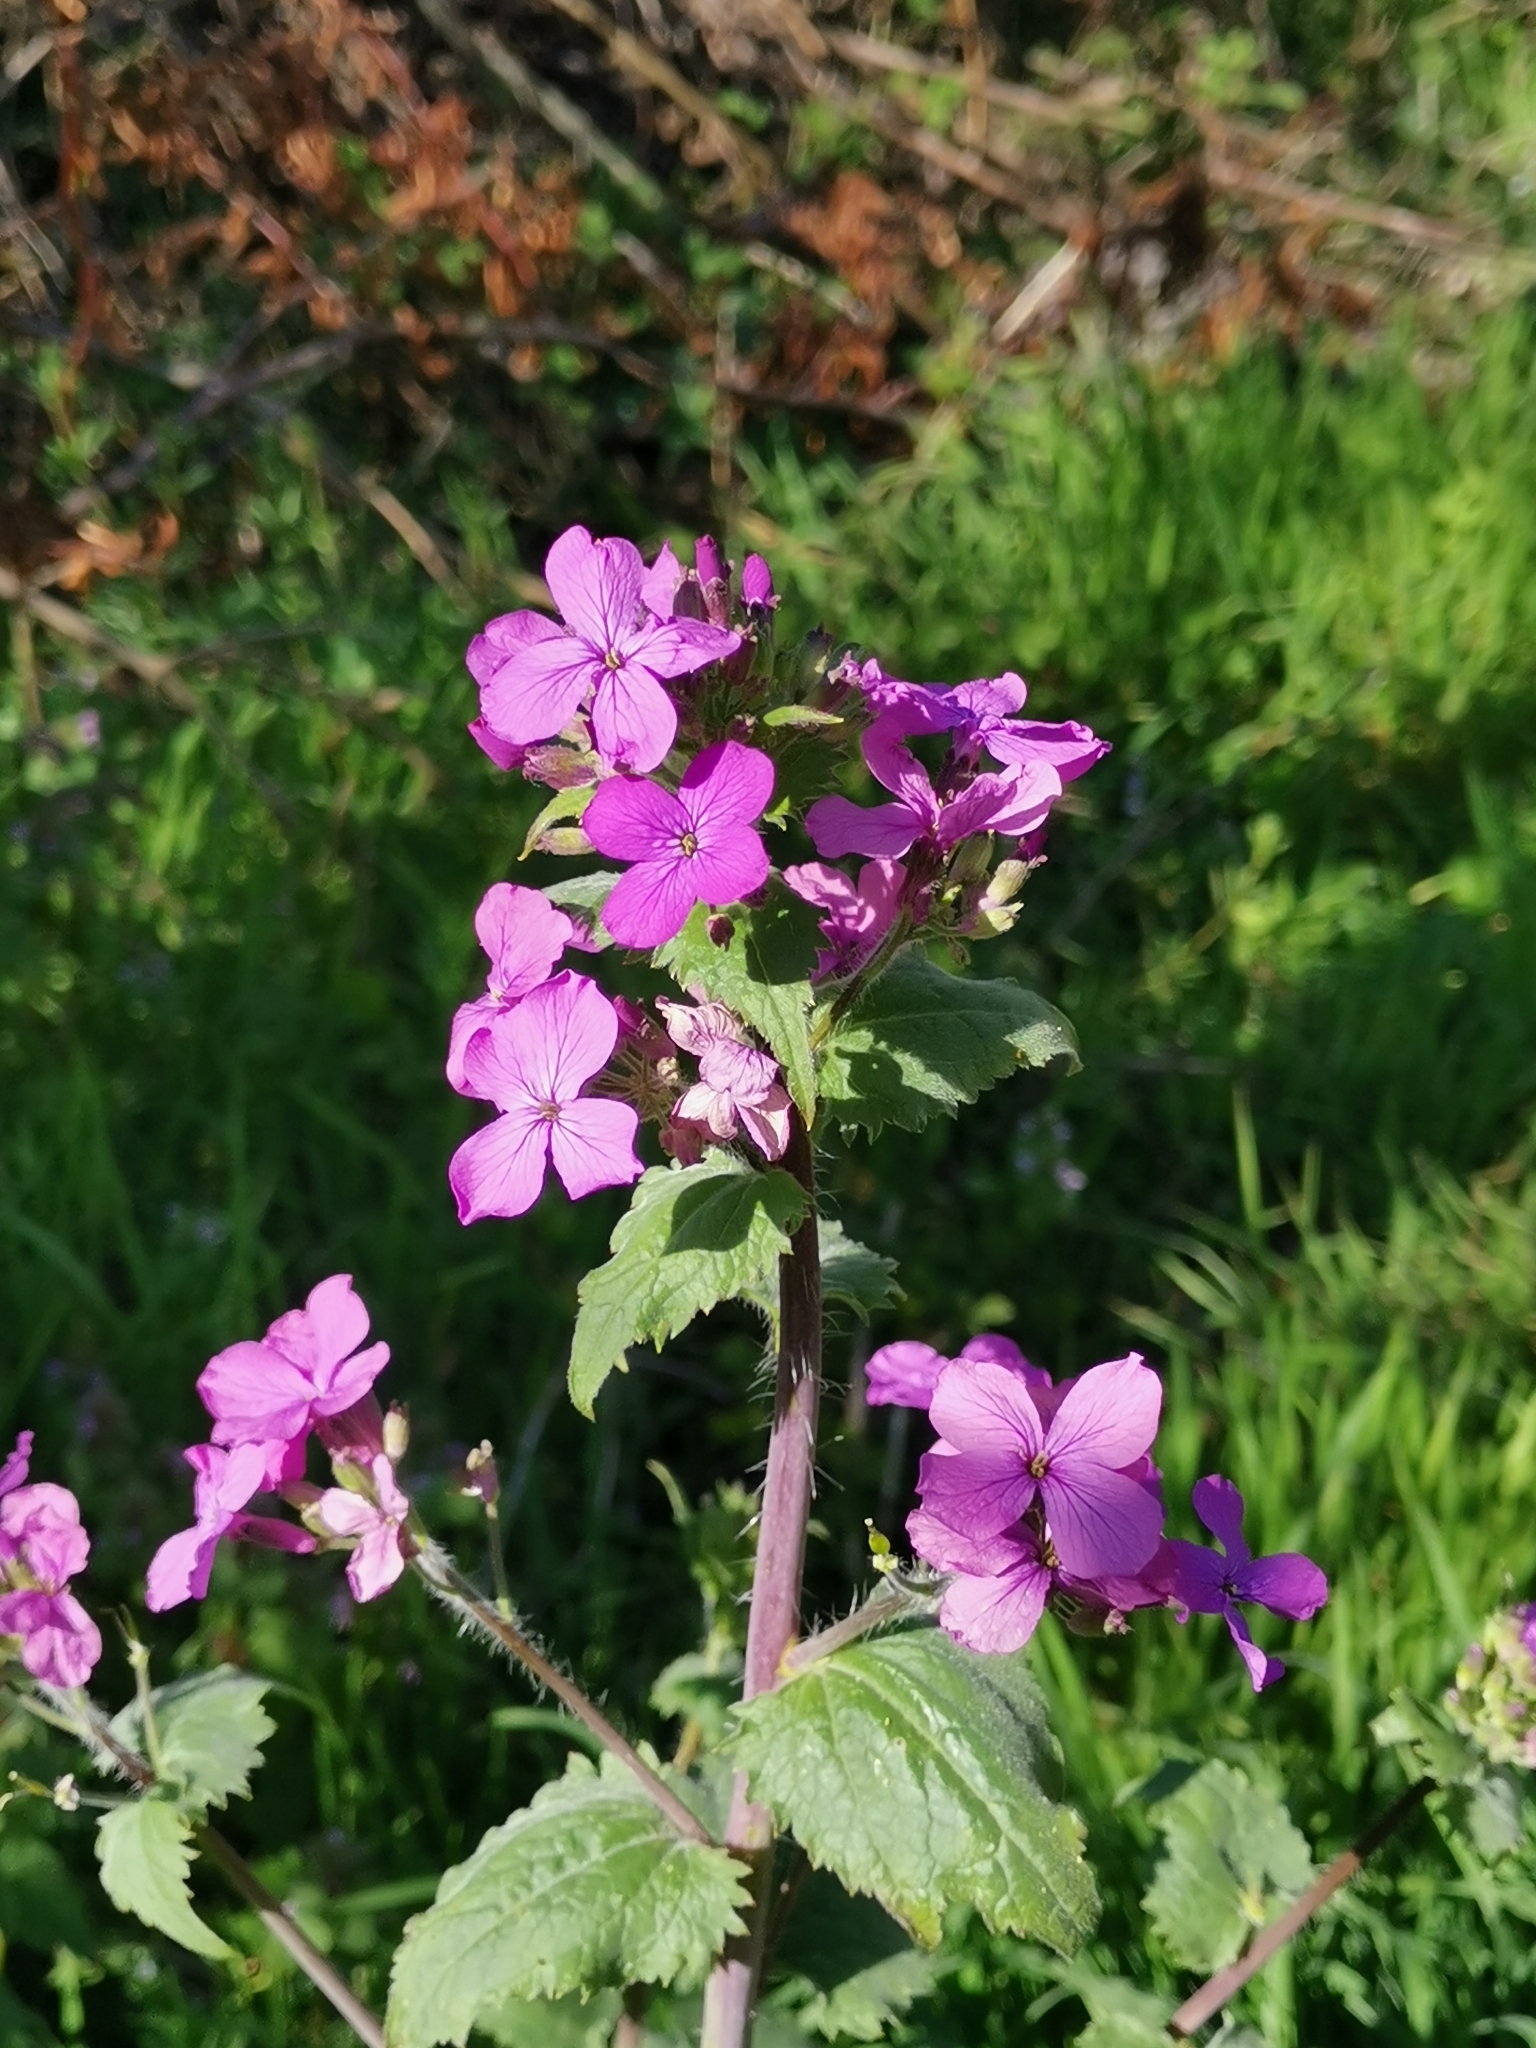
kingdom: Plantae
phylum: Tracheophyta
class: Magnoliopsida
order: Brassicales
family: Brassicaceae
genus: Lunaria
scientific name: Lunaria annua
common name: Honesty
